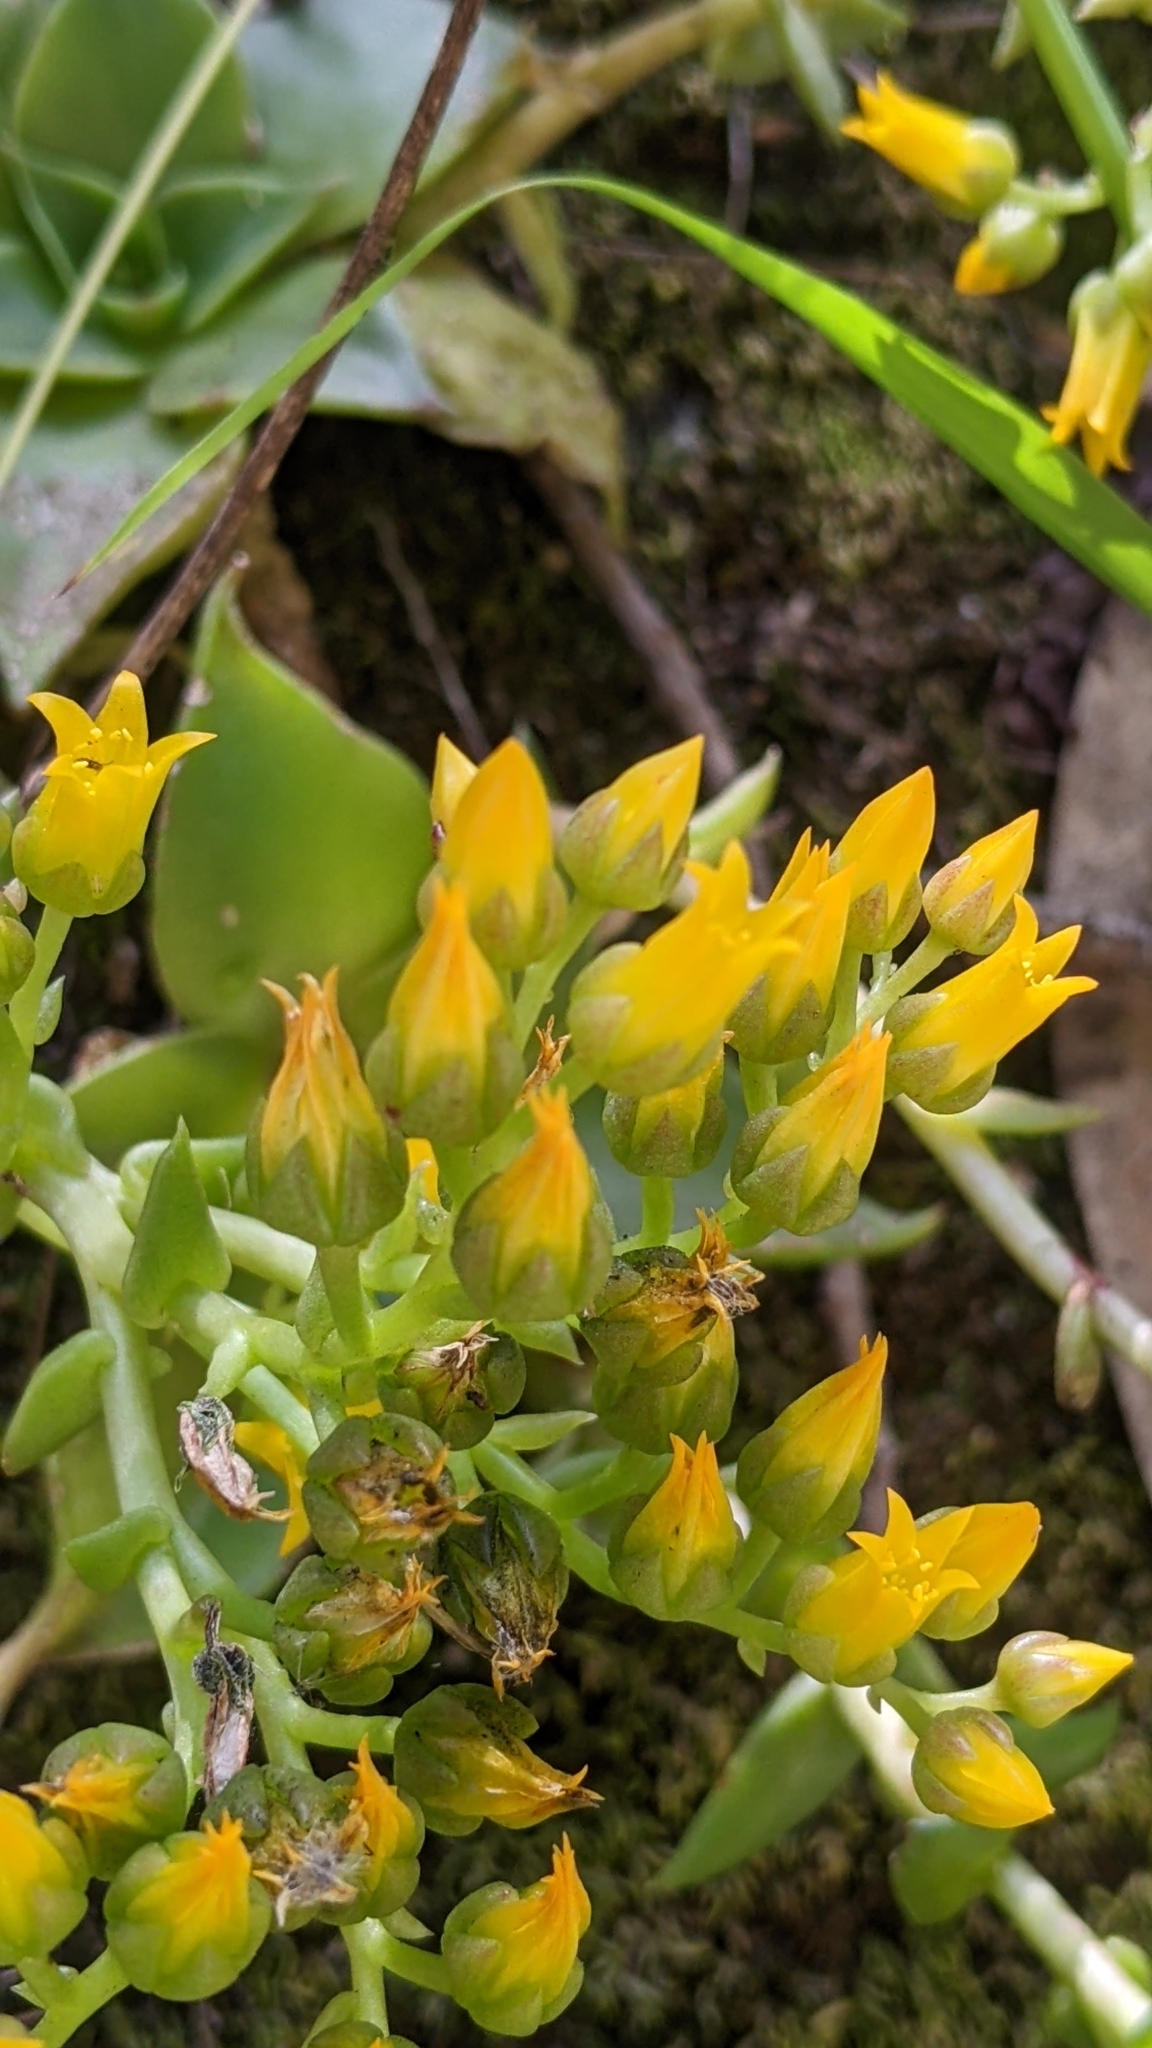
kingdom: Plantae
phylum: Tracheophyta
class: Magnoliopsida
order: Saxifragales
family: Crassulaceae
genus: Dudleya
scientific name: Dudleya cymosa
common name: Canyon dudleya
